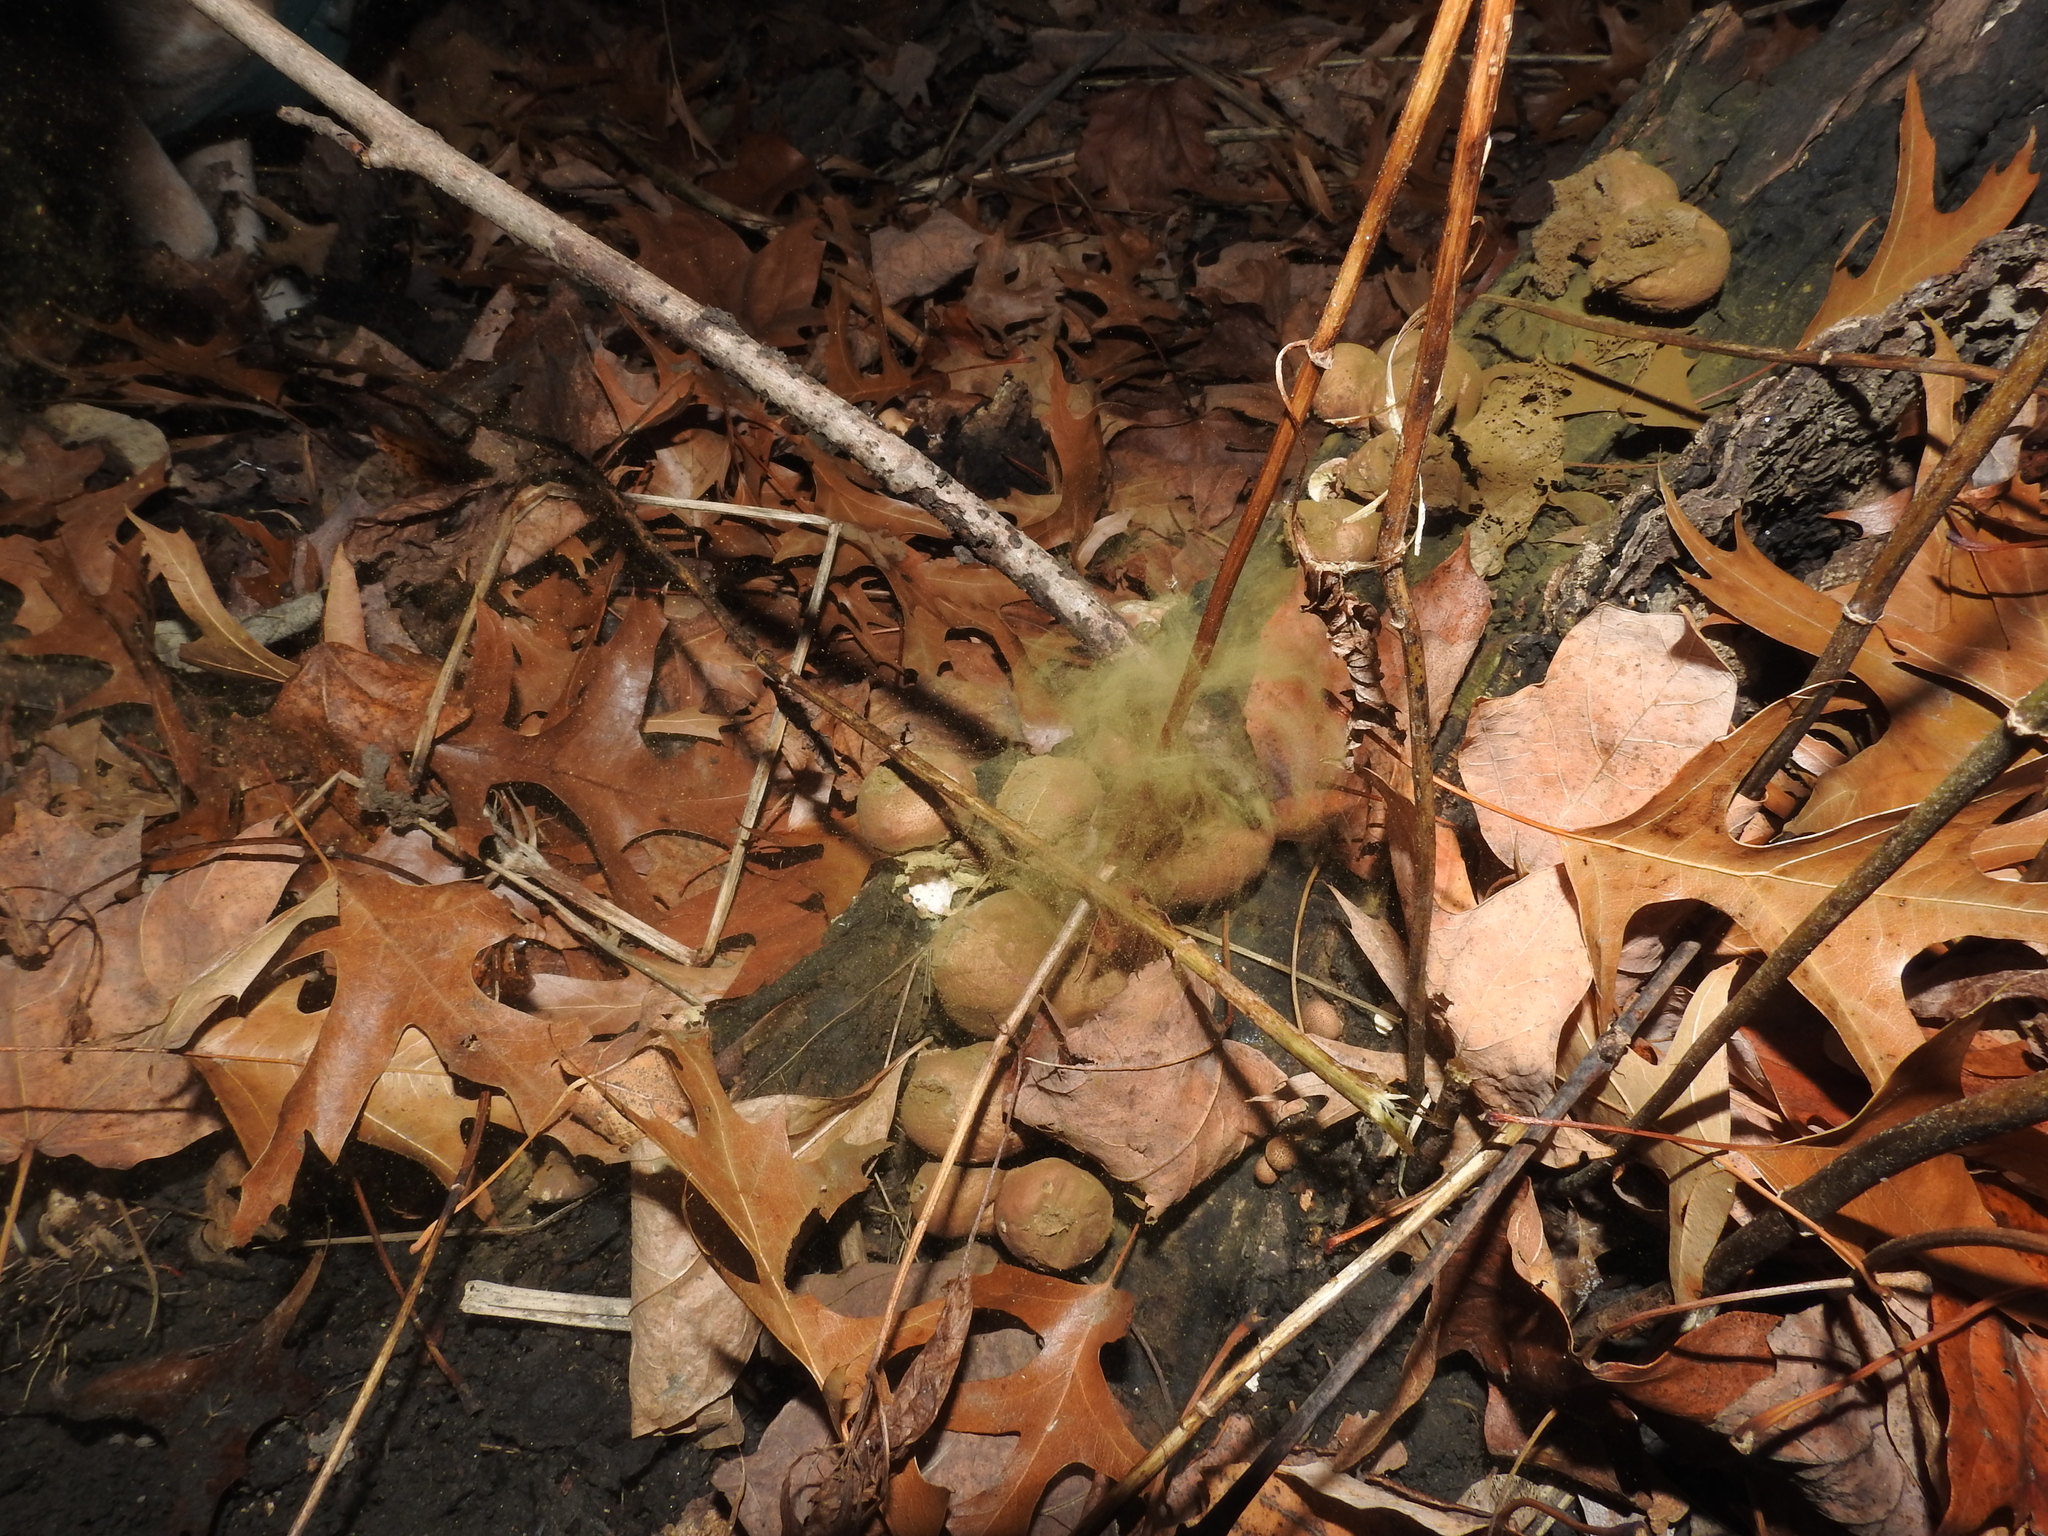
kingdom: Fungi
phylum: Basidiomycota
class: Agaricomycetes
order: Agaricales
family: Lycoperdaceae
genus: Apioperdon
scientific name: Apioperdon pyriforme
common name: Pear-shaped puffball
